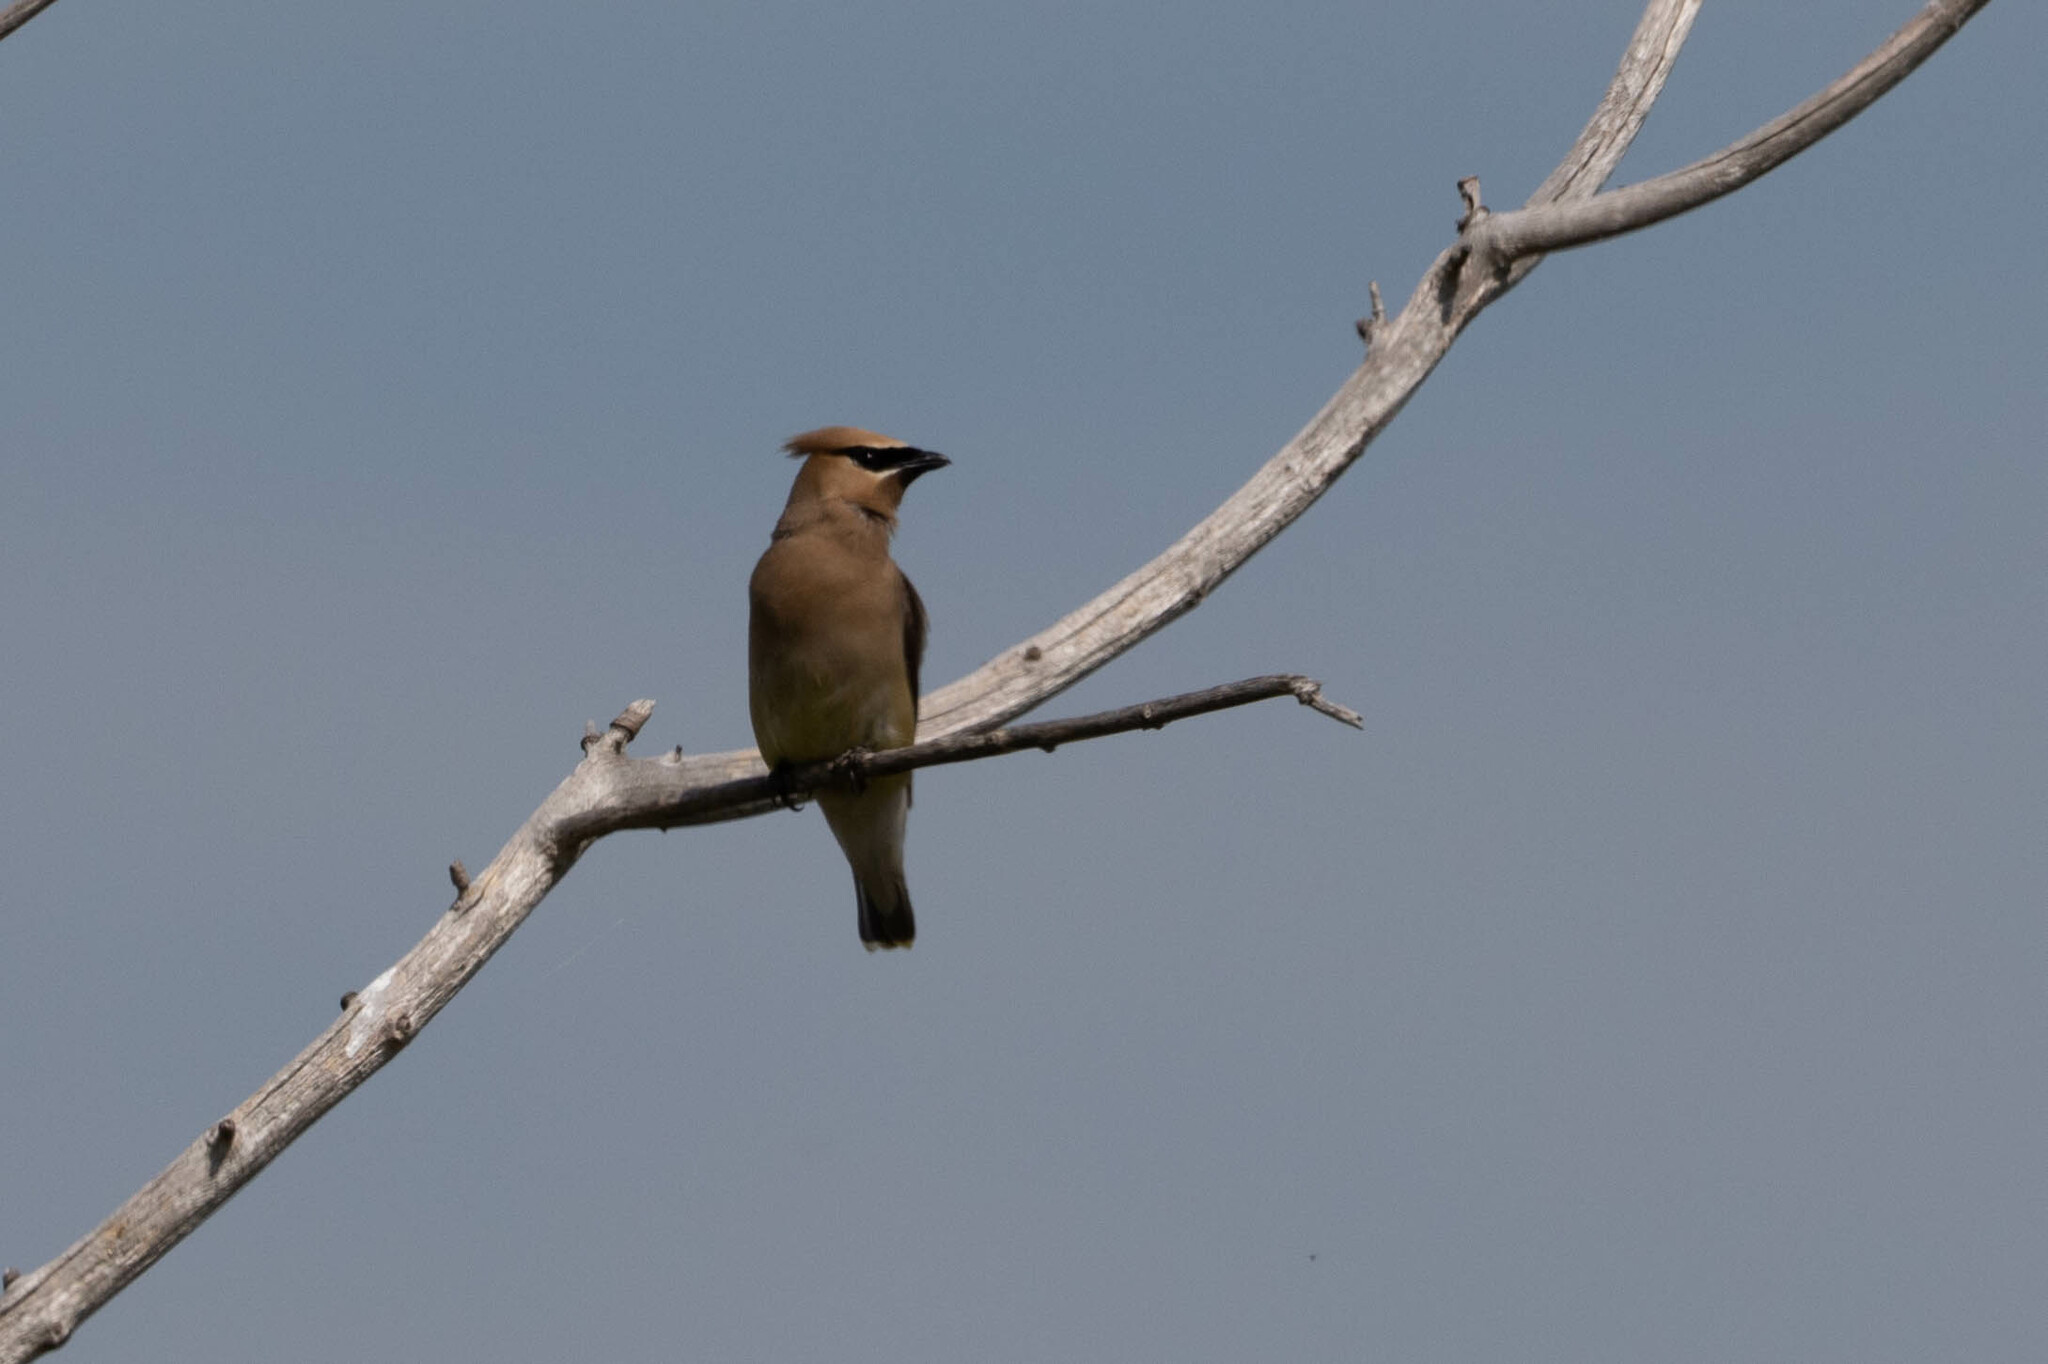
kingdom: Animalia
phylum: Chordata
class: Aves
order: Passeriformes
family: Bombycillidae
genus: Bombycilla
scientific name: Bombycilla cedrorum
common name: Cedar waxwing
